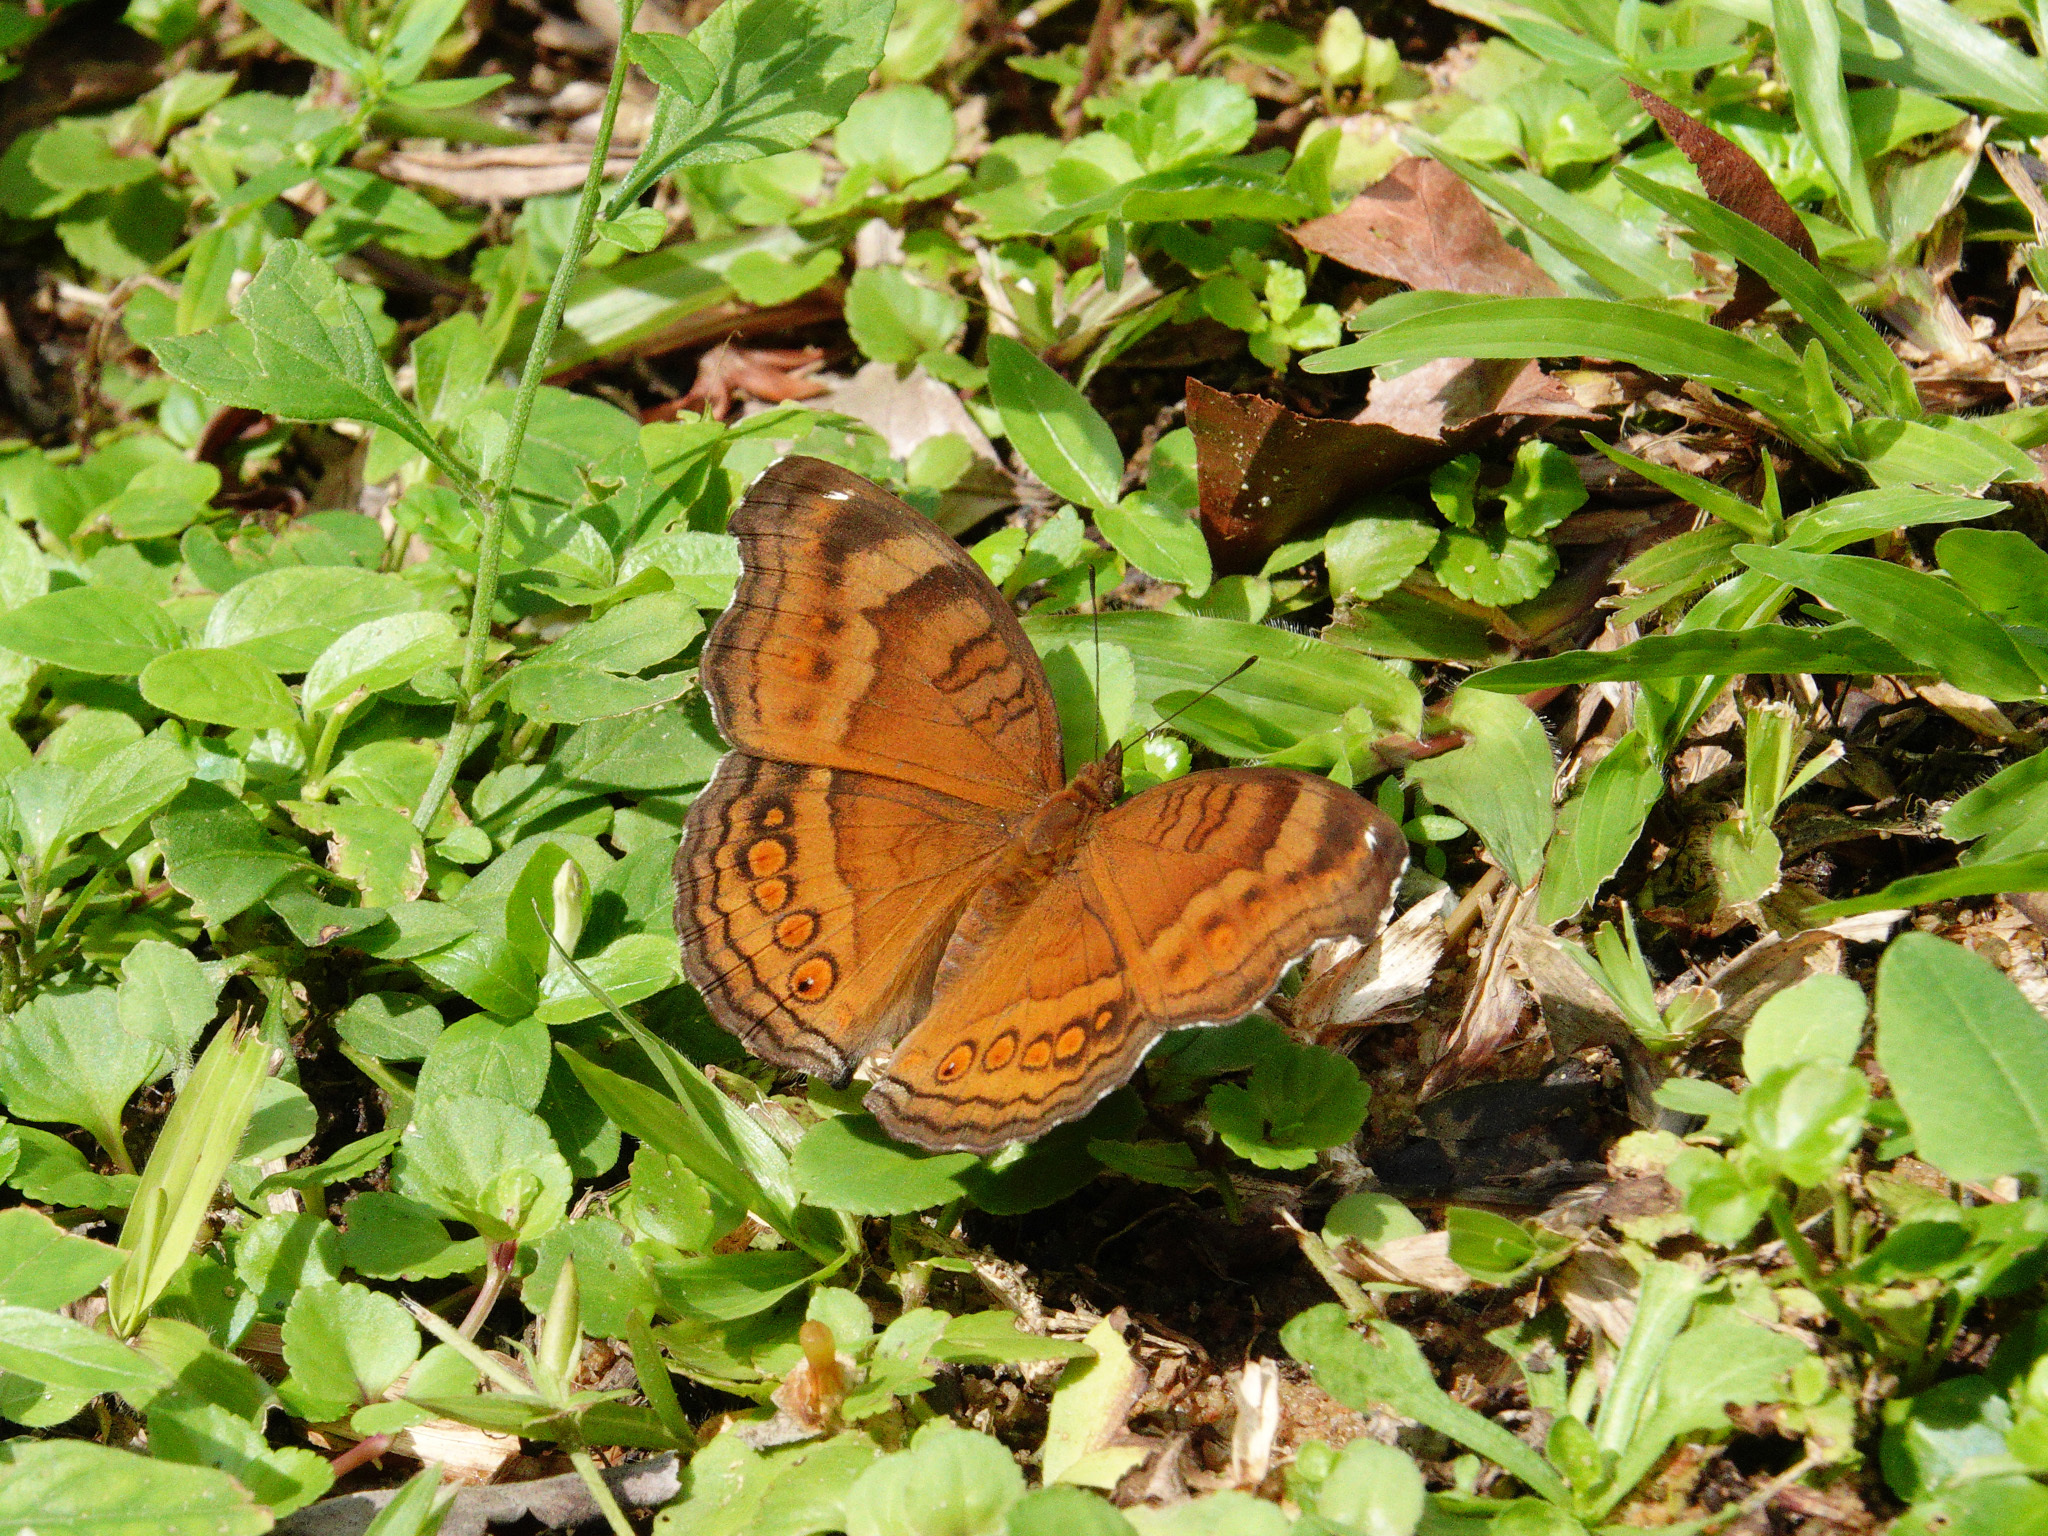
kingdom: Animalia
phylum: Arthropoda
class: Insecta
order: Lepidoptera
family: Nymphalidae
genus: Junonia
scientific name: Junonia hedonia
